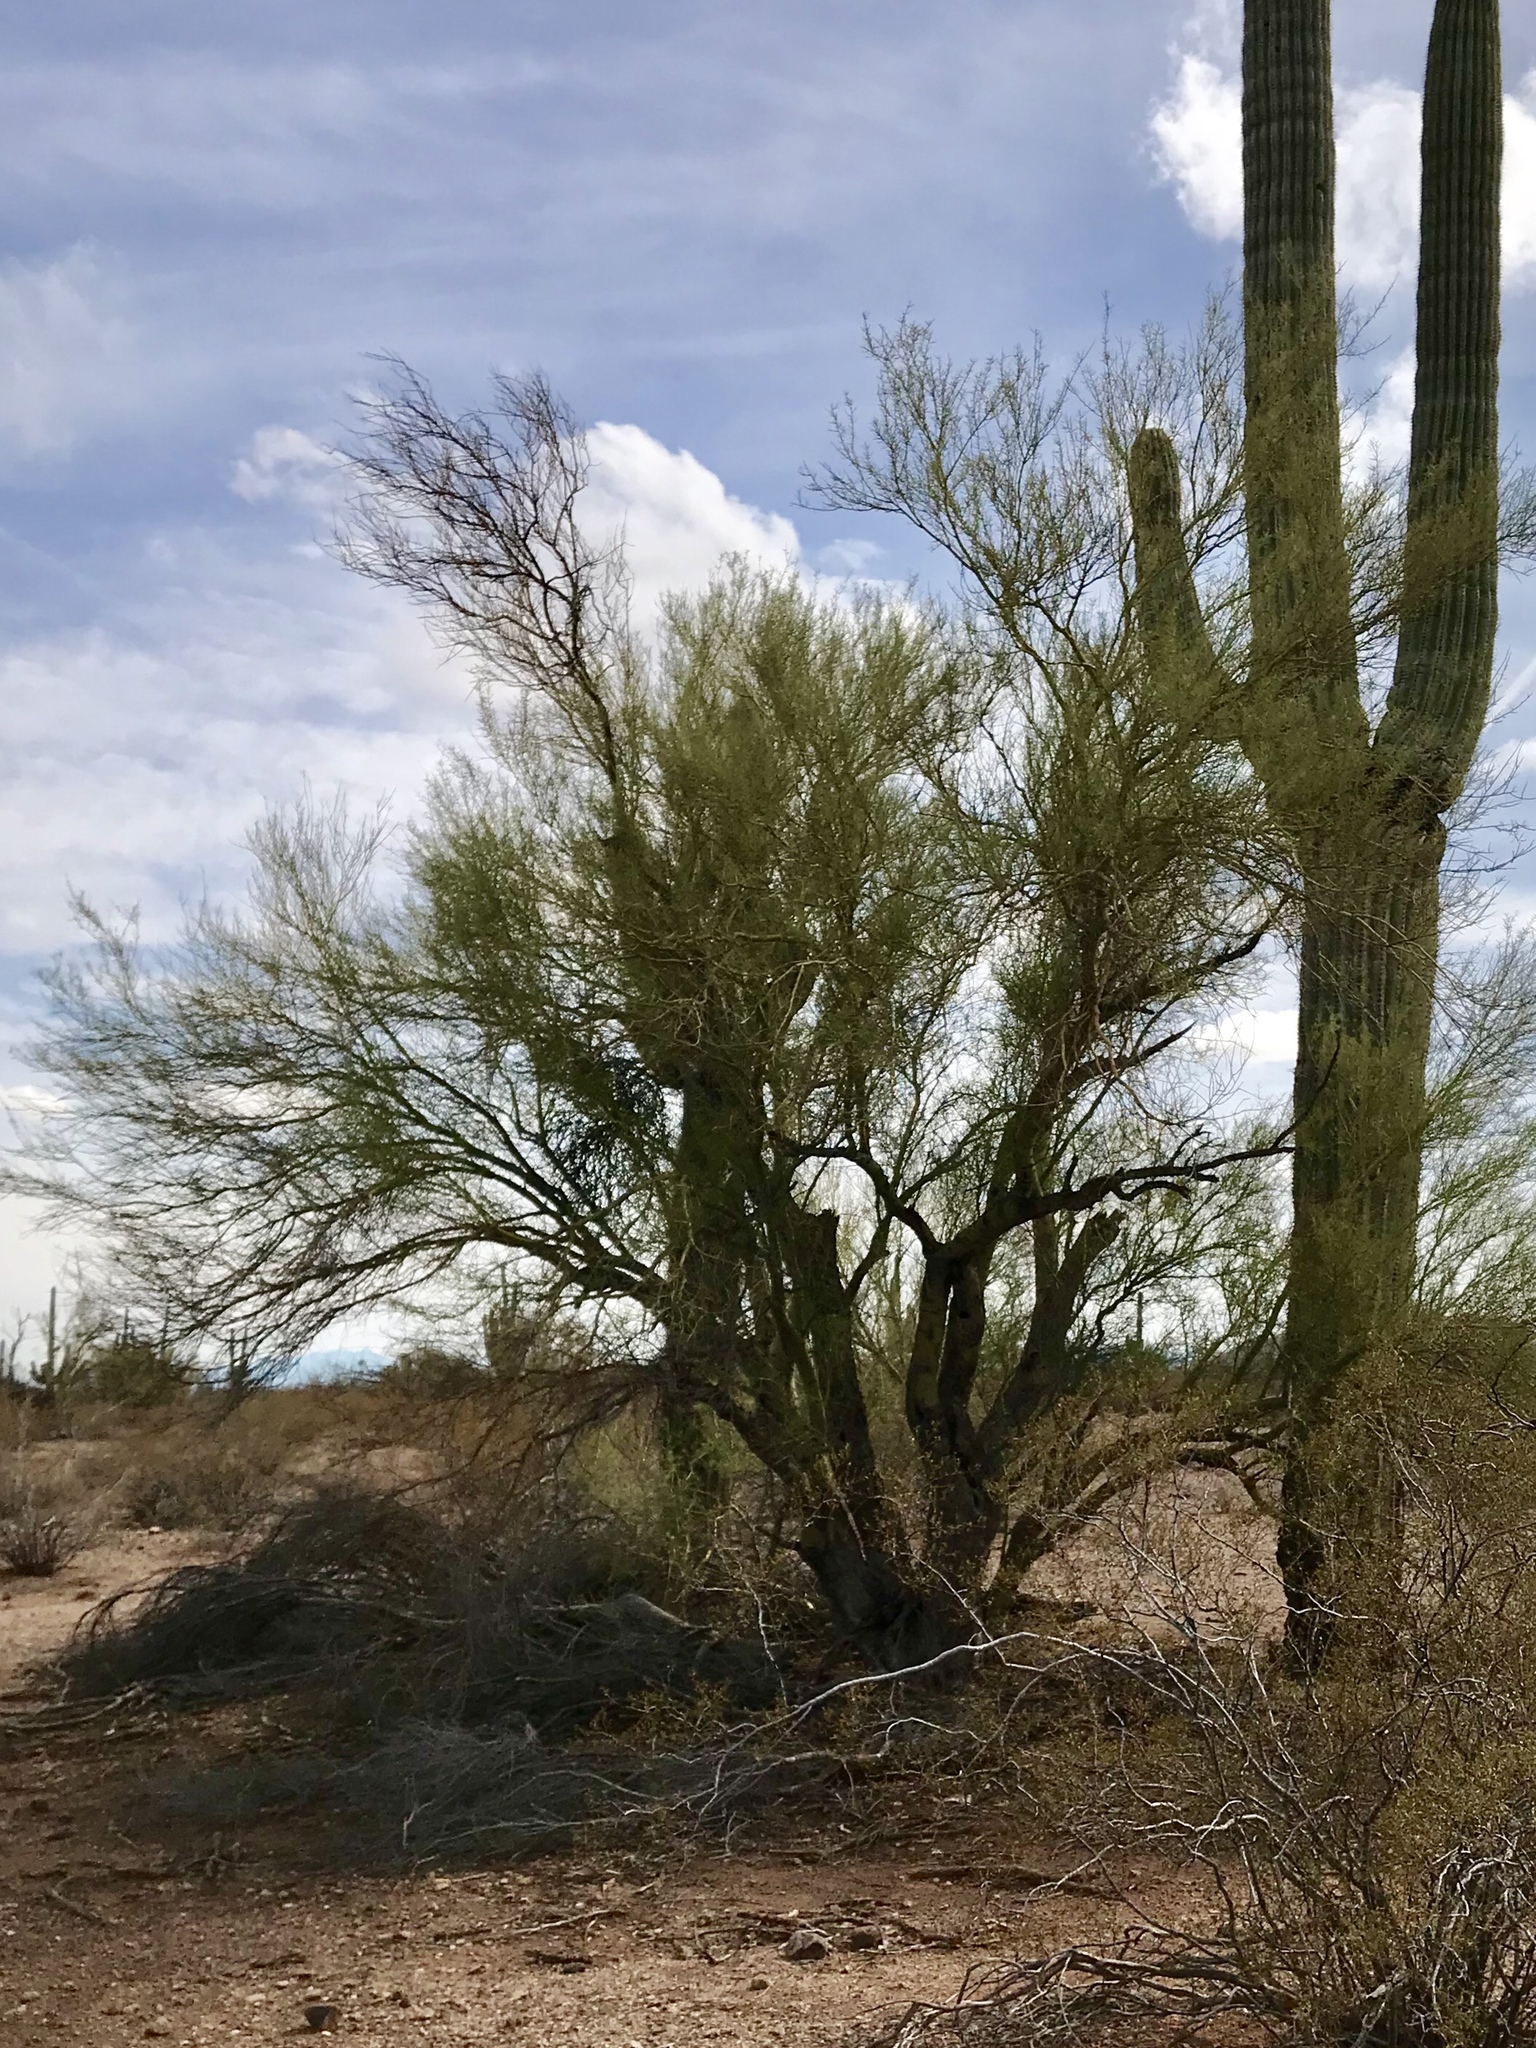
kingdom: Plantae
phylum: Tracheophyta
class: Magnoliopsida
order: Fabales
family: Fabaceae
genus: Parkinsonia
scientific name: Parkinsonia microphylla
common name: Yellow paloverde
